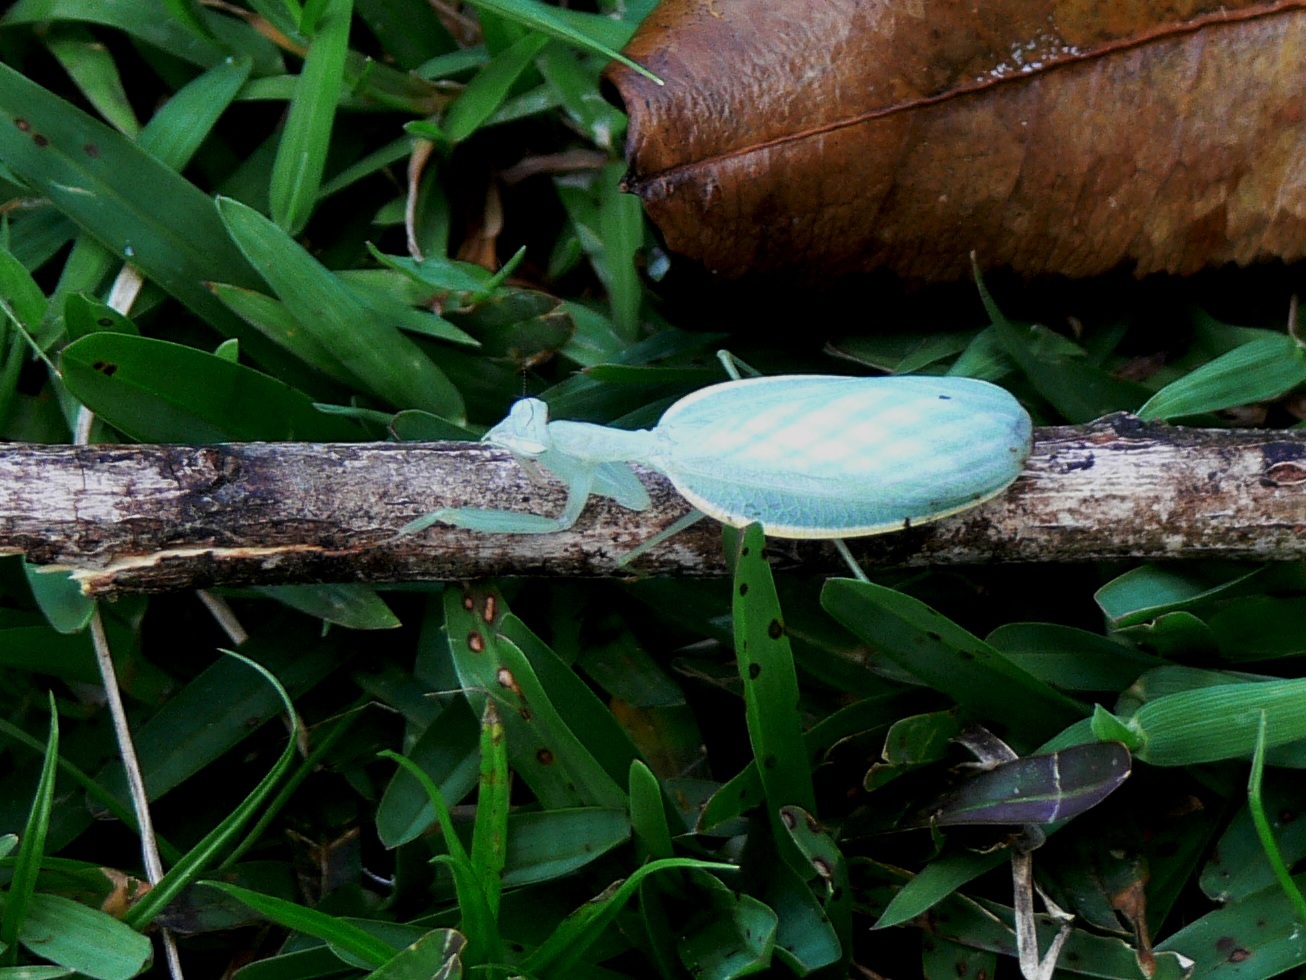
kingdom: Animalia
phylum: Arthropoda
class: Insecta
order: Mantodea
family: Nanomantidae
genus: Platycalymma
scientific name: Platycalymma dichroica
